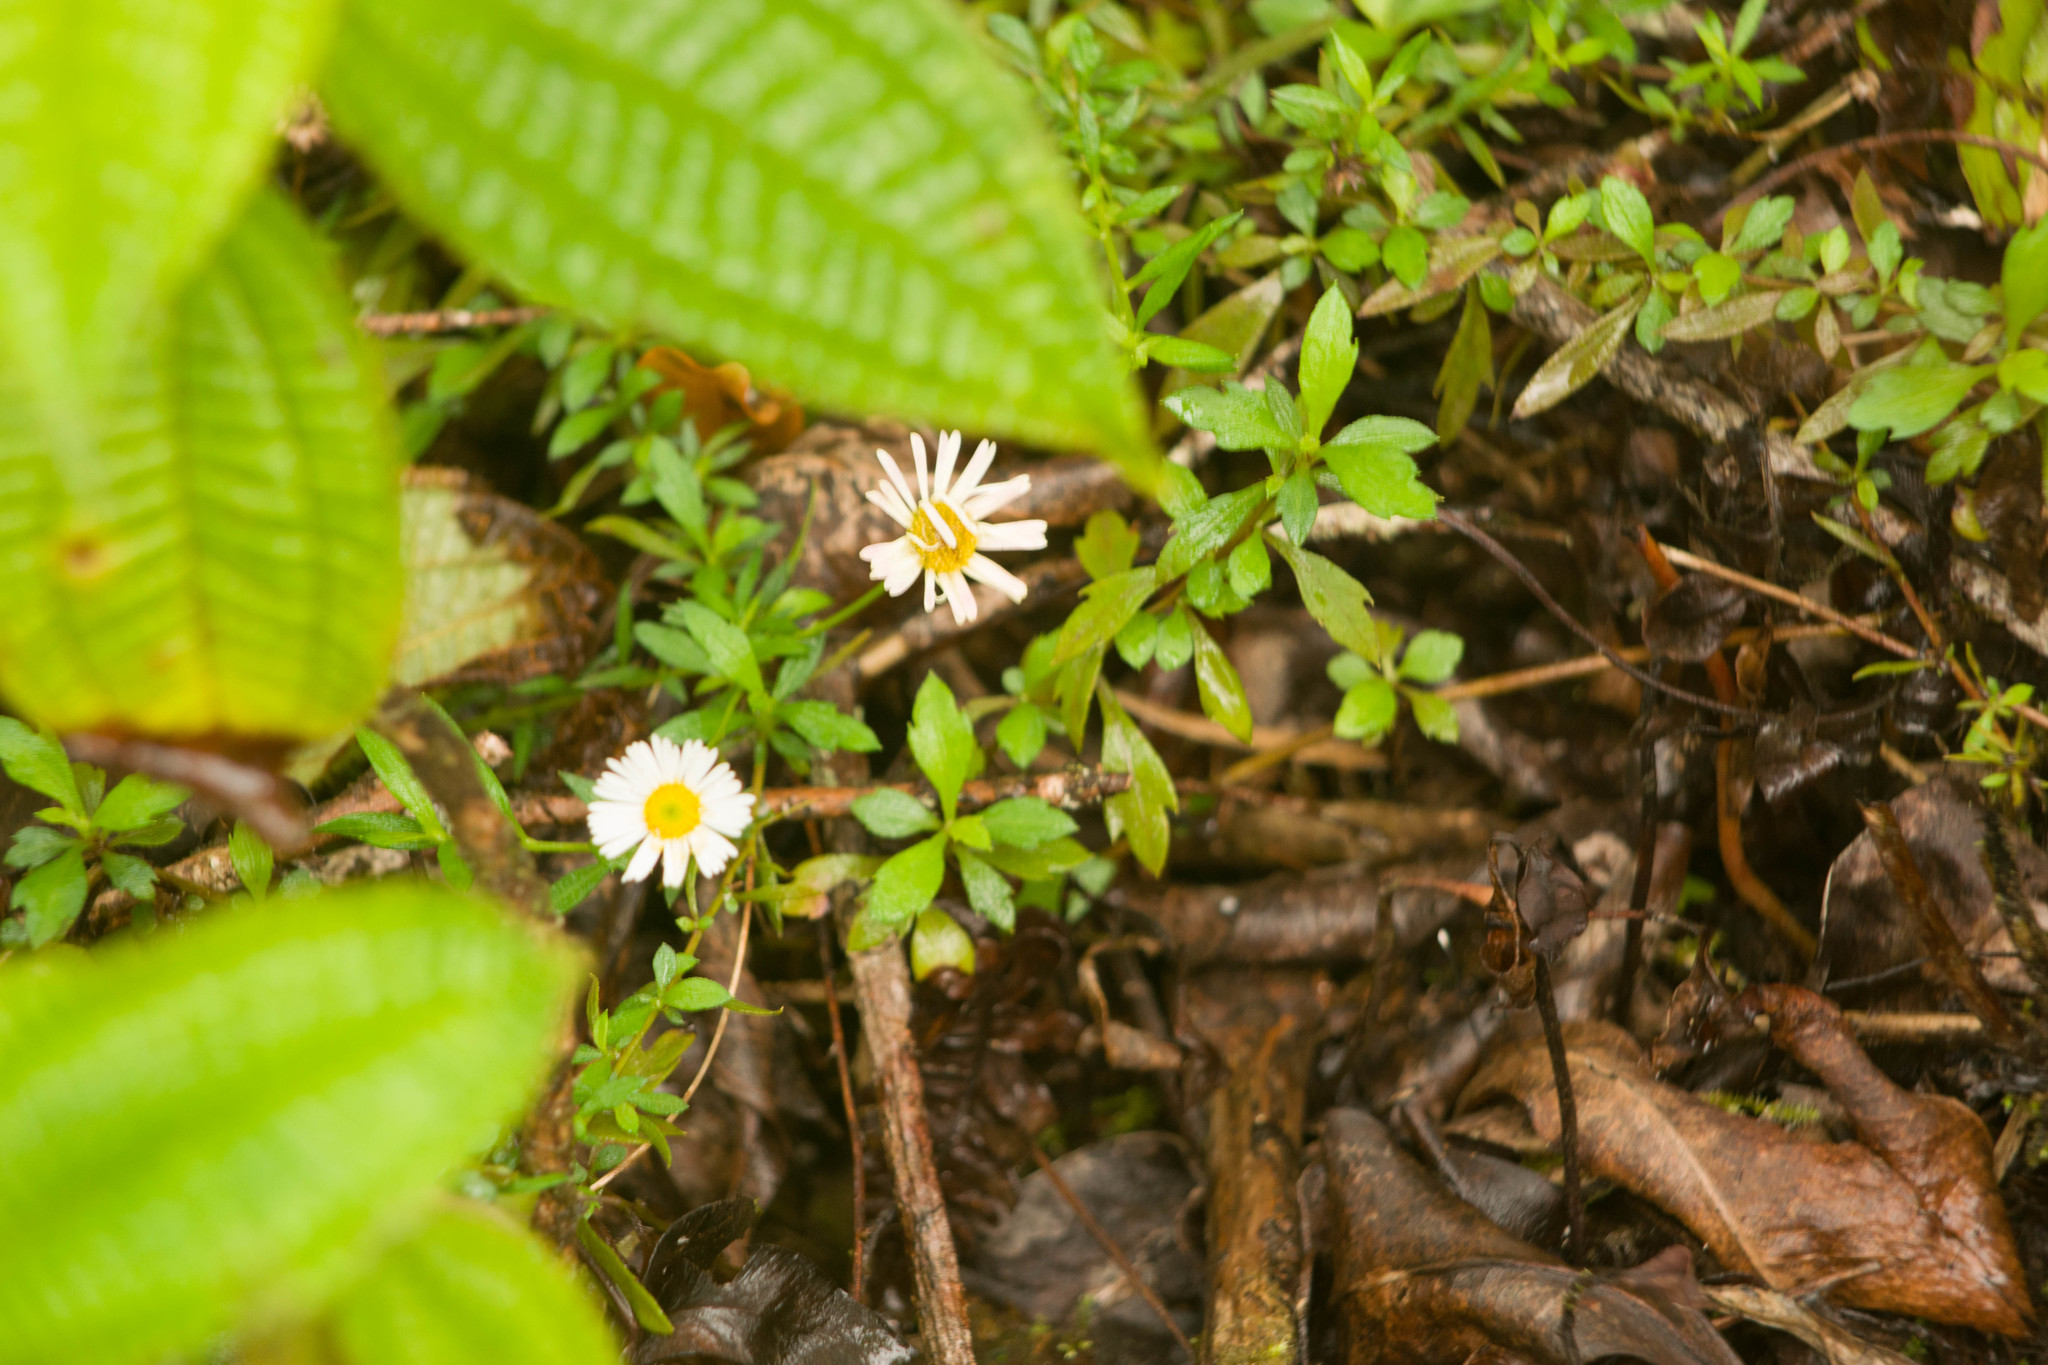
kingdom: Plantae
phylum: Tracheophyta
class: Magnoliopsida
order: Asterales
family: Asteraceae
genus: Erigeron
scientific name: Erigeron karvinskianus
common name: Mexican fleabane
